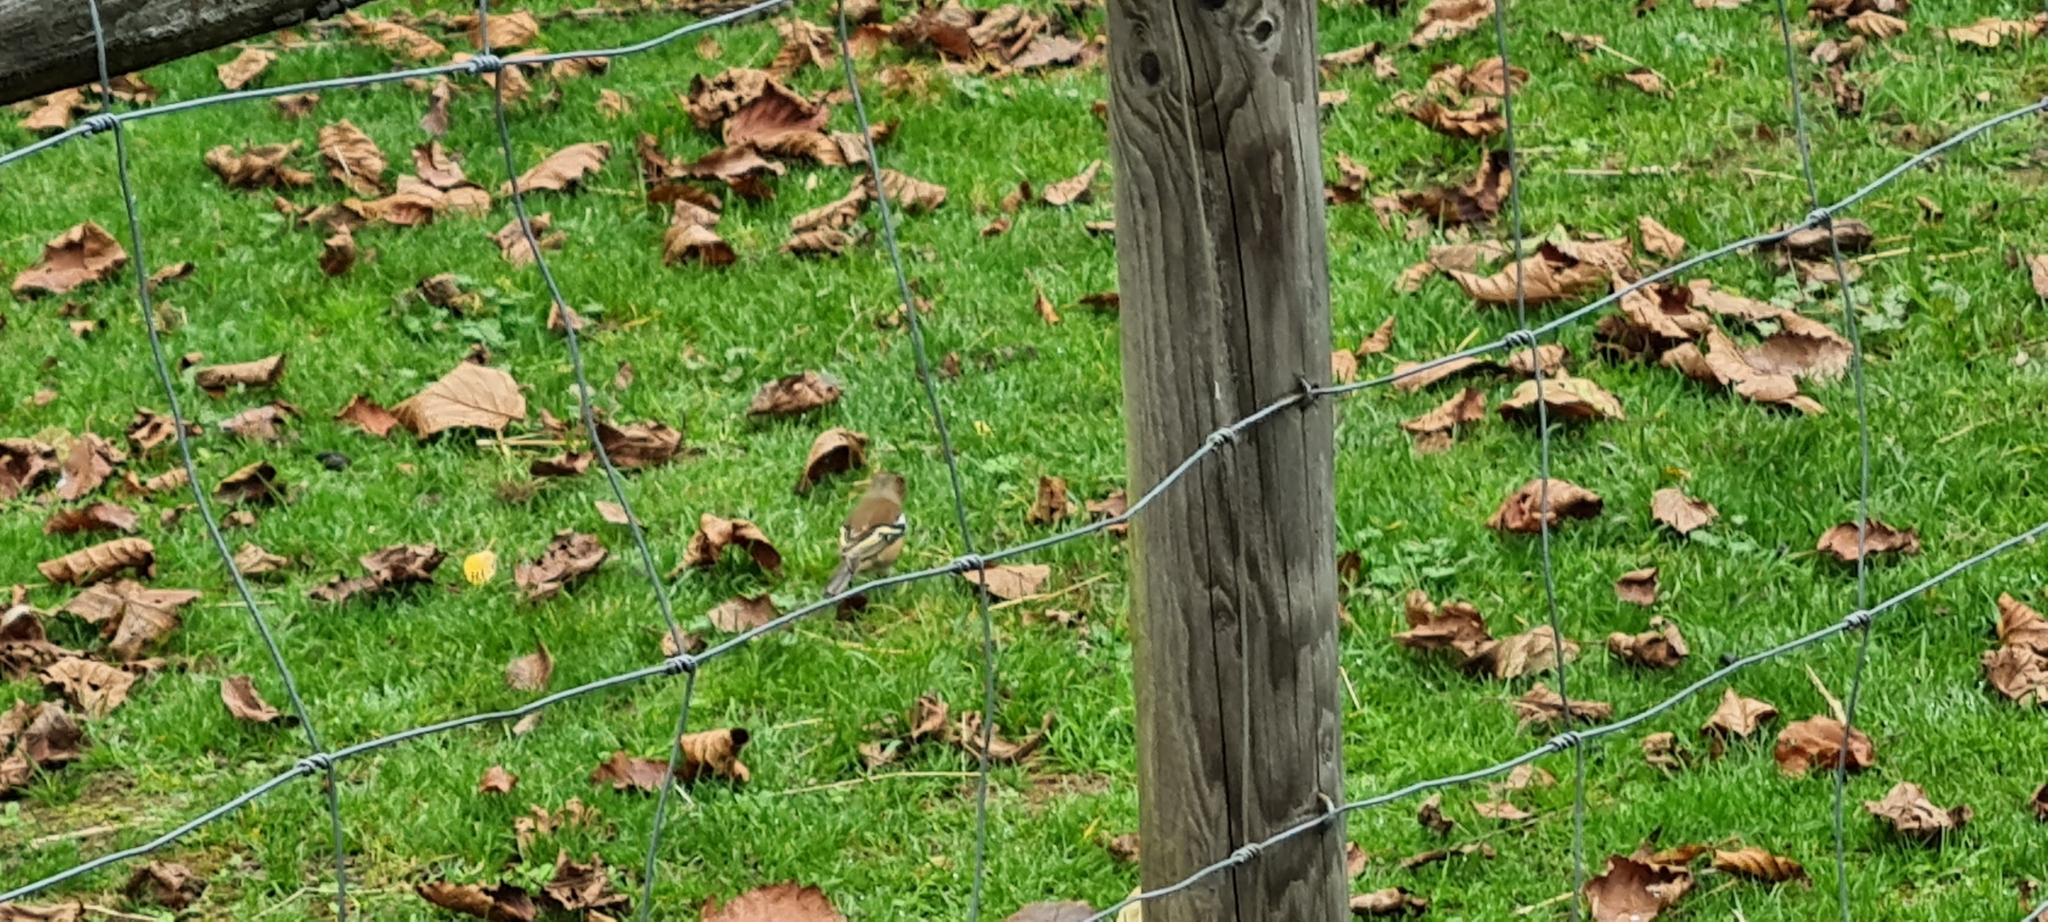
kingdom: Animalia
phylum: Chordata
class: Aves
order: Passeriformes
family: Fringillidae
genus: Fringilla
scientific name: Fringilla coelebs
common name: Common chaffinch
